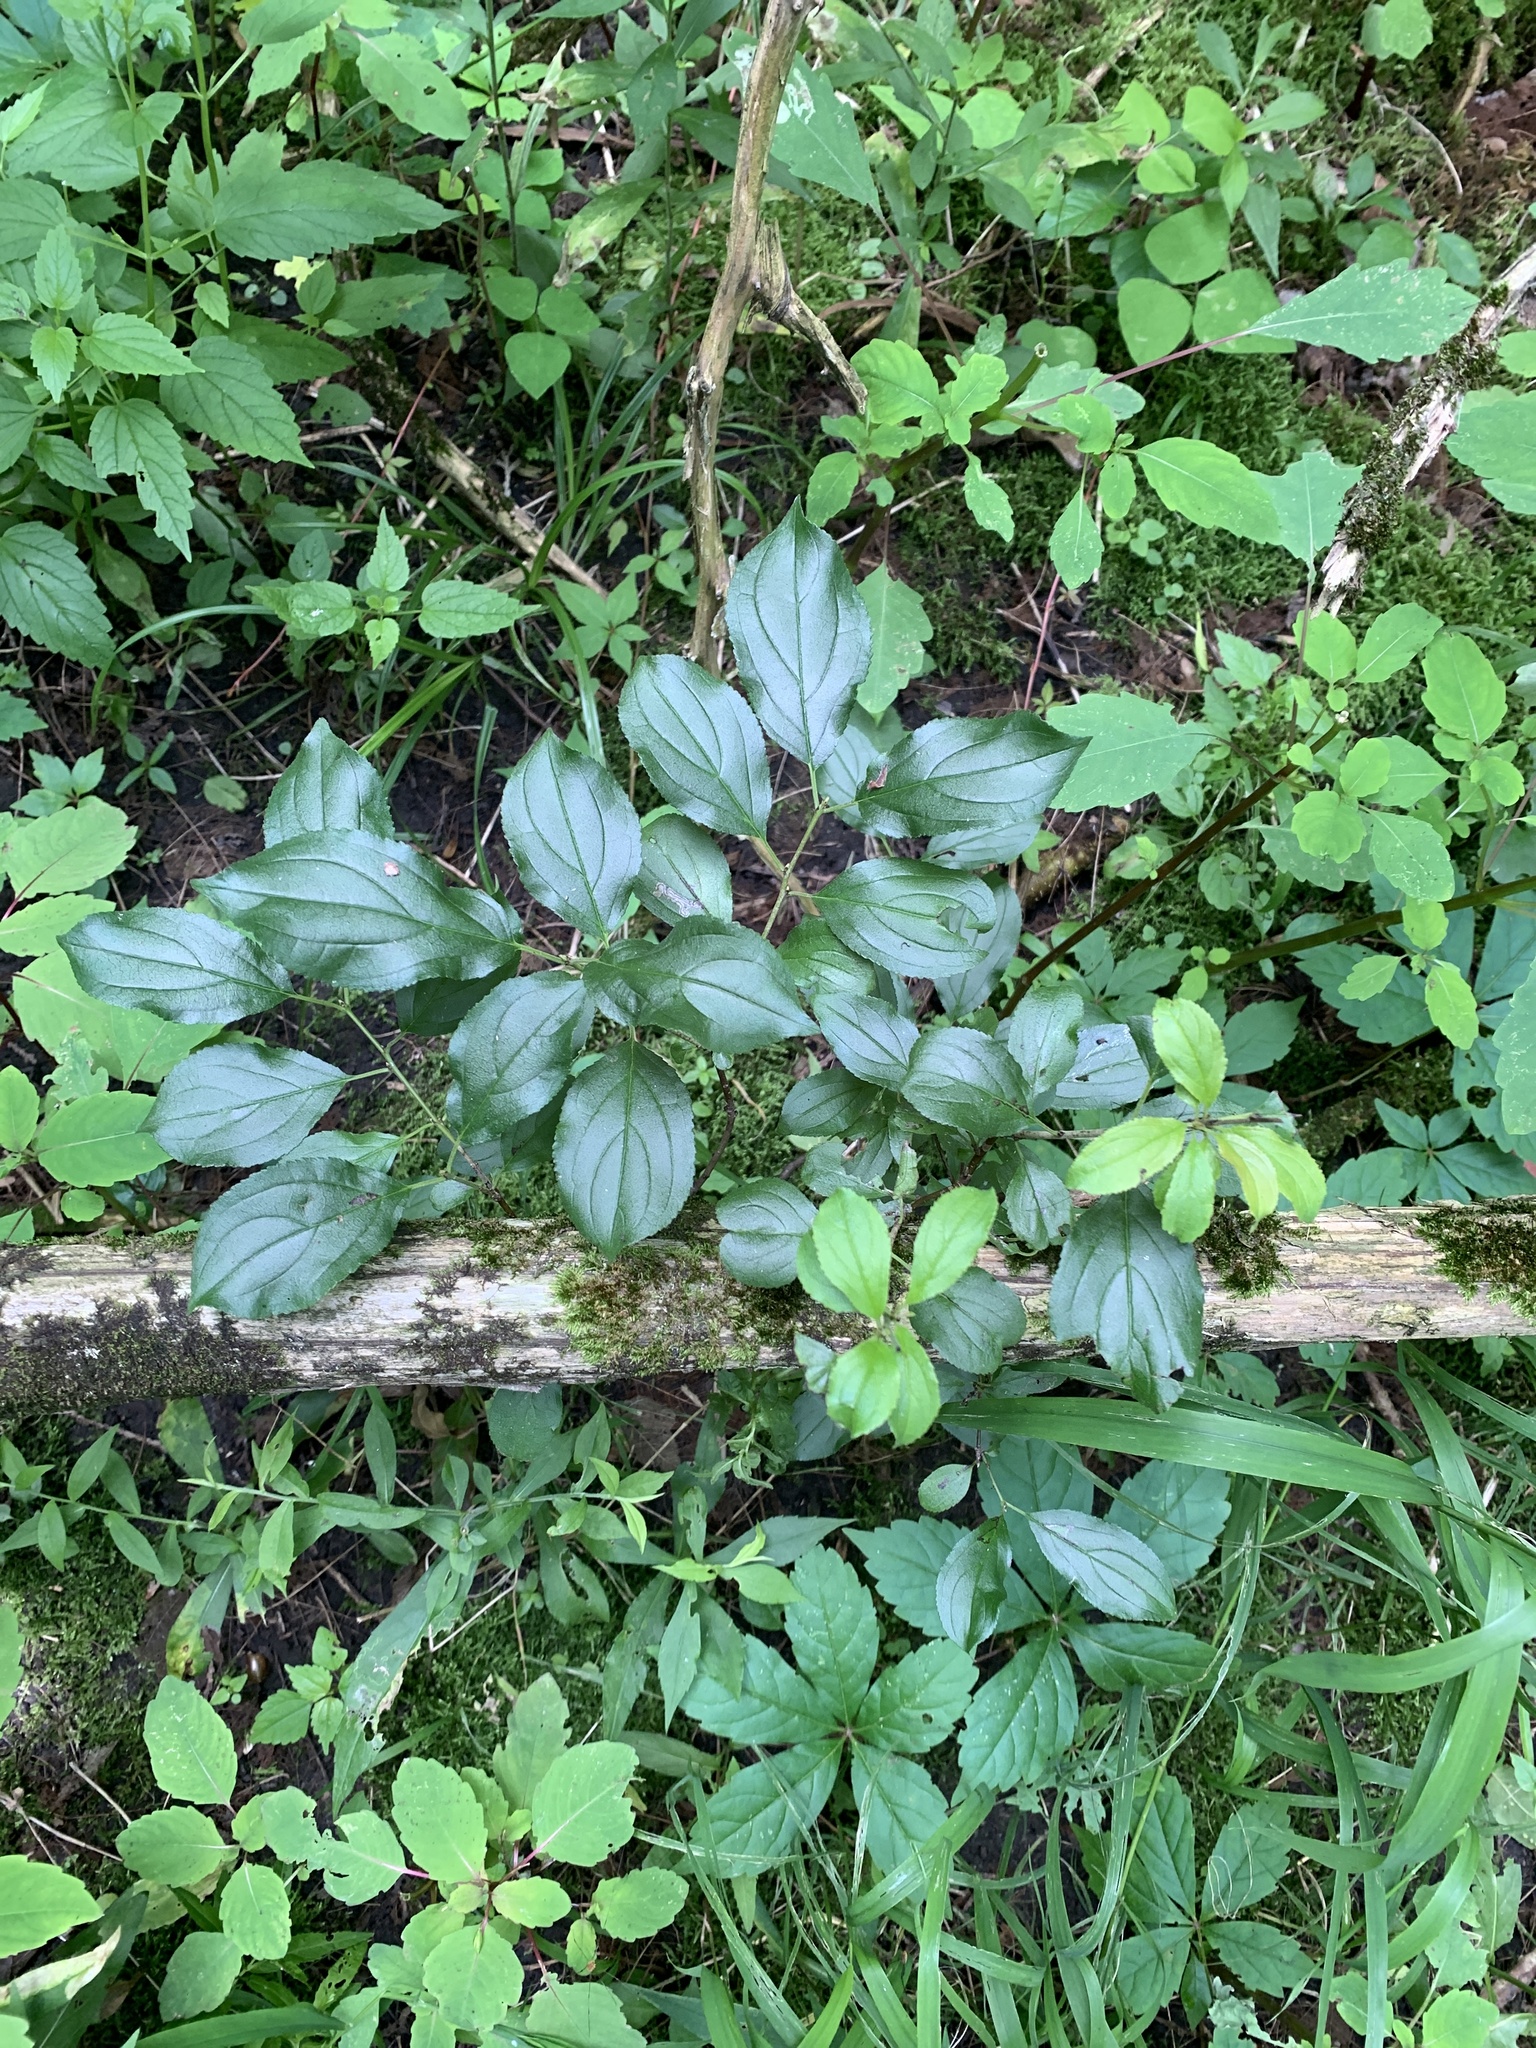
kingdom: Plantae
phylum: Tracheophyta
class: Magnoliopsida
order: Rosales
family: Rhamnaceae
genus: Rhamnus
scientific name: Rhamnus cathartica
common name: Common buckthorn
